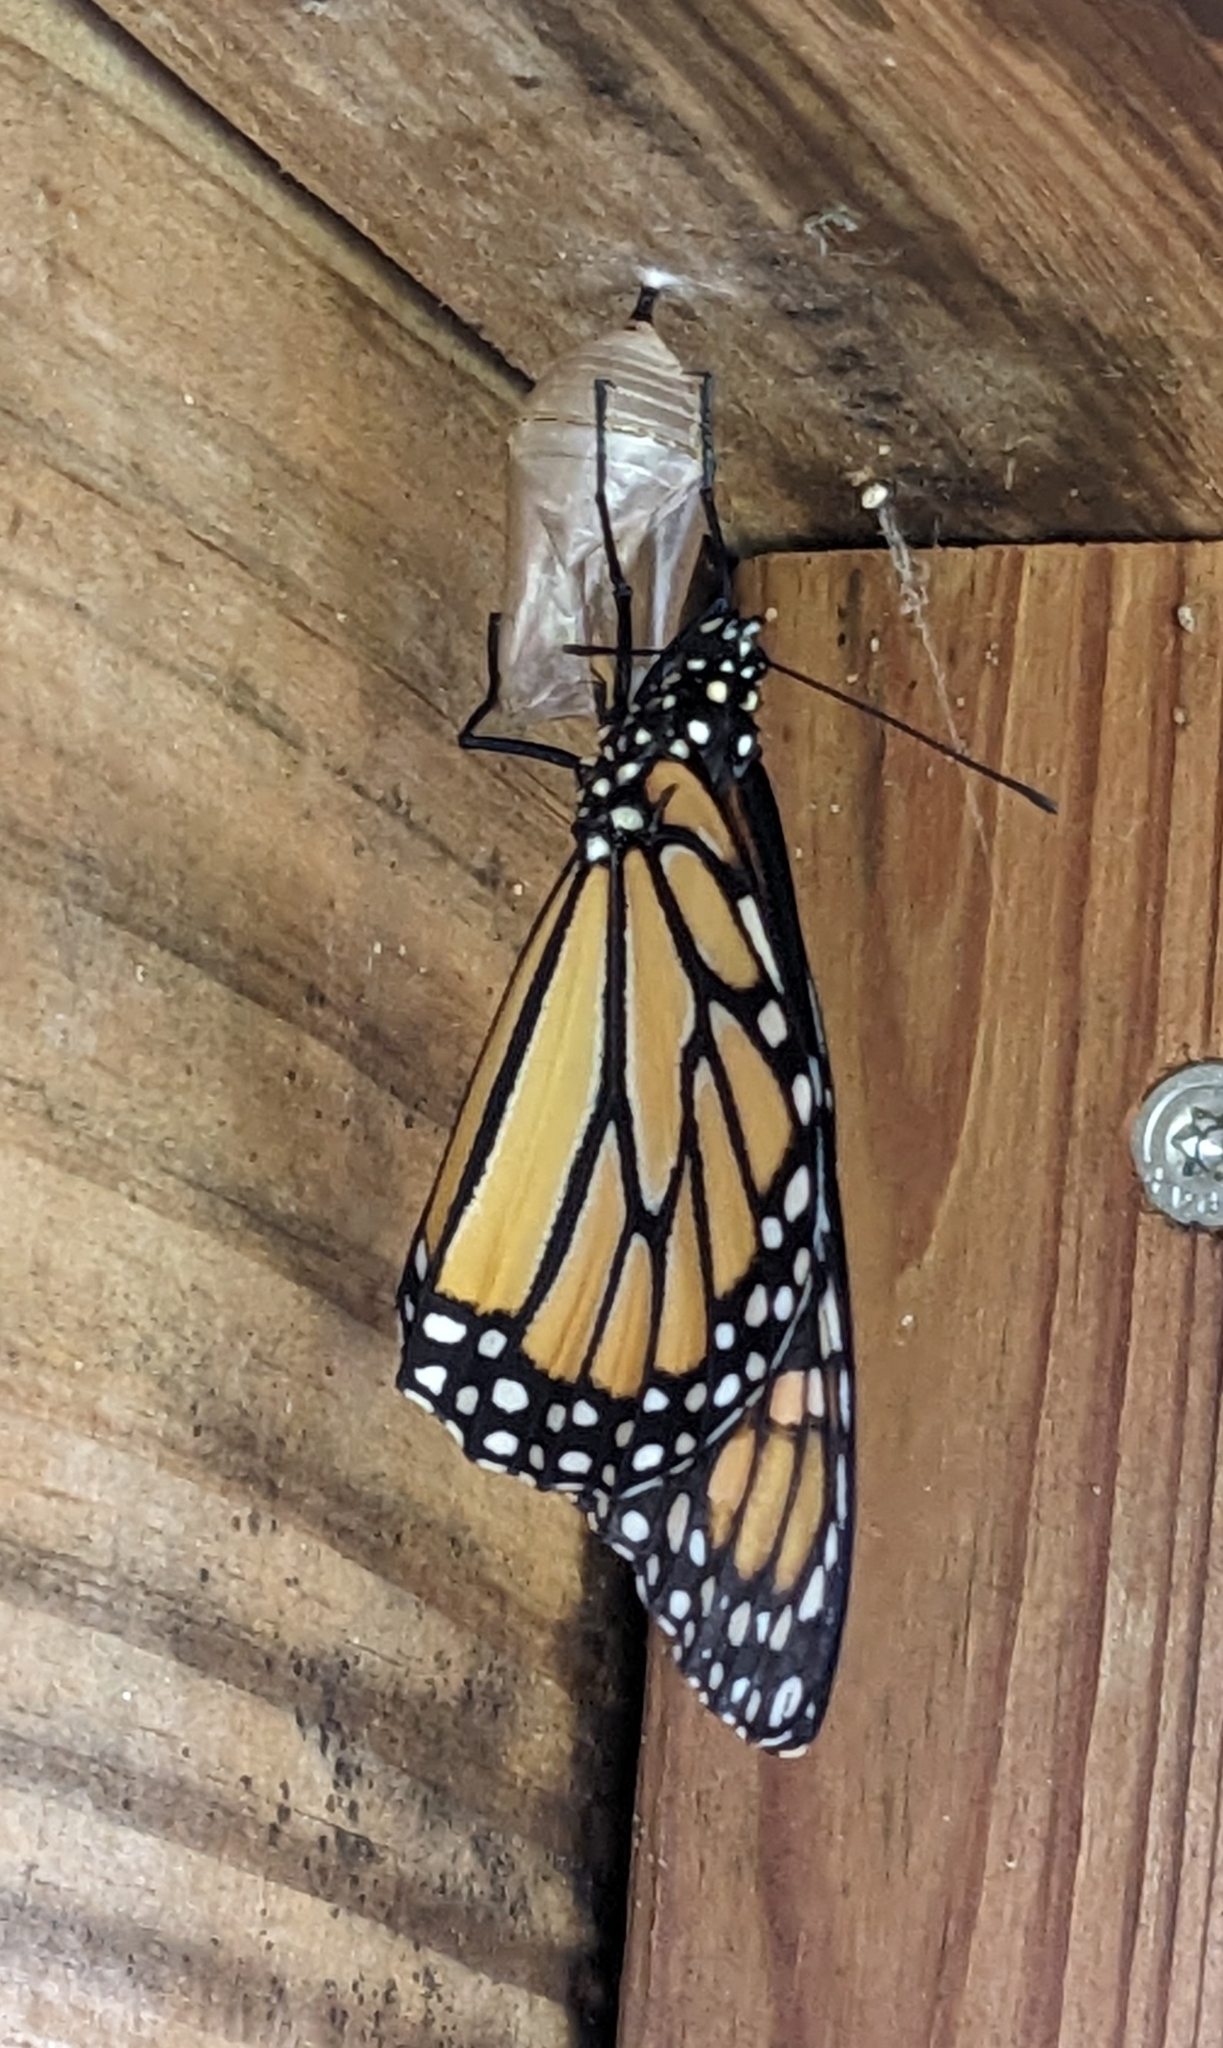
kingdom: Animalia
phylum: Arthropoda
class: Insecta
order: Lepidoptera
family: Nymphalidae
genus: Danaus
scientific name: Danaus plexippus
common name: Monarch
